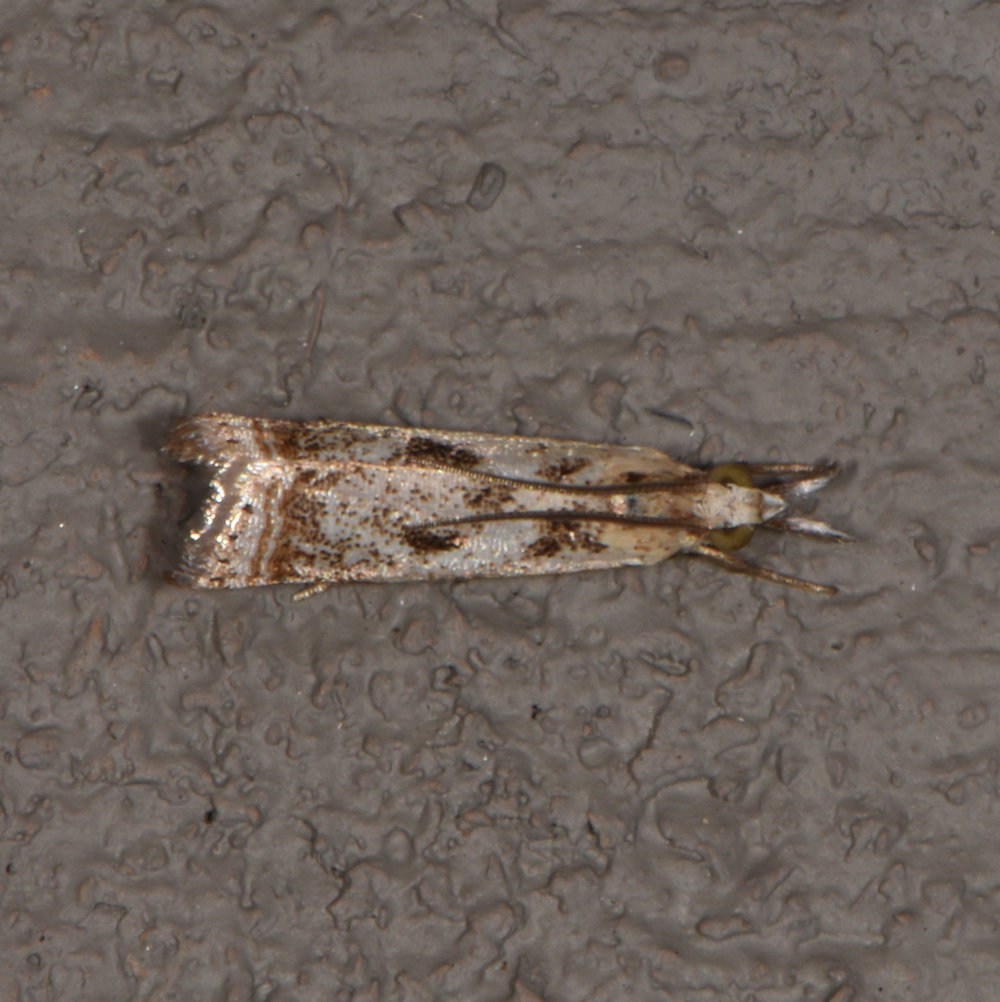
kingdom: Animalia
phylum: Arthropoda
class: Insecta
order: Lepidoptera
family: Crambidae
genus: Microcrambus
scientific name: Microcrambus elegans
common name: Elegant grass-veneer
